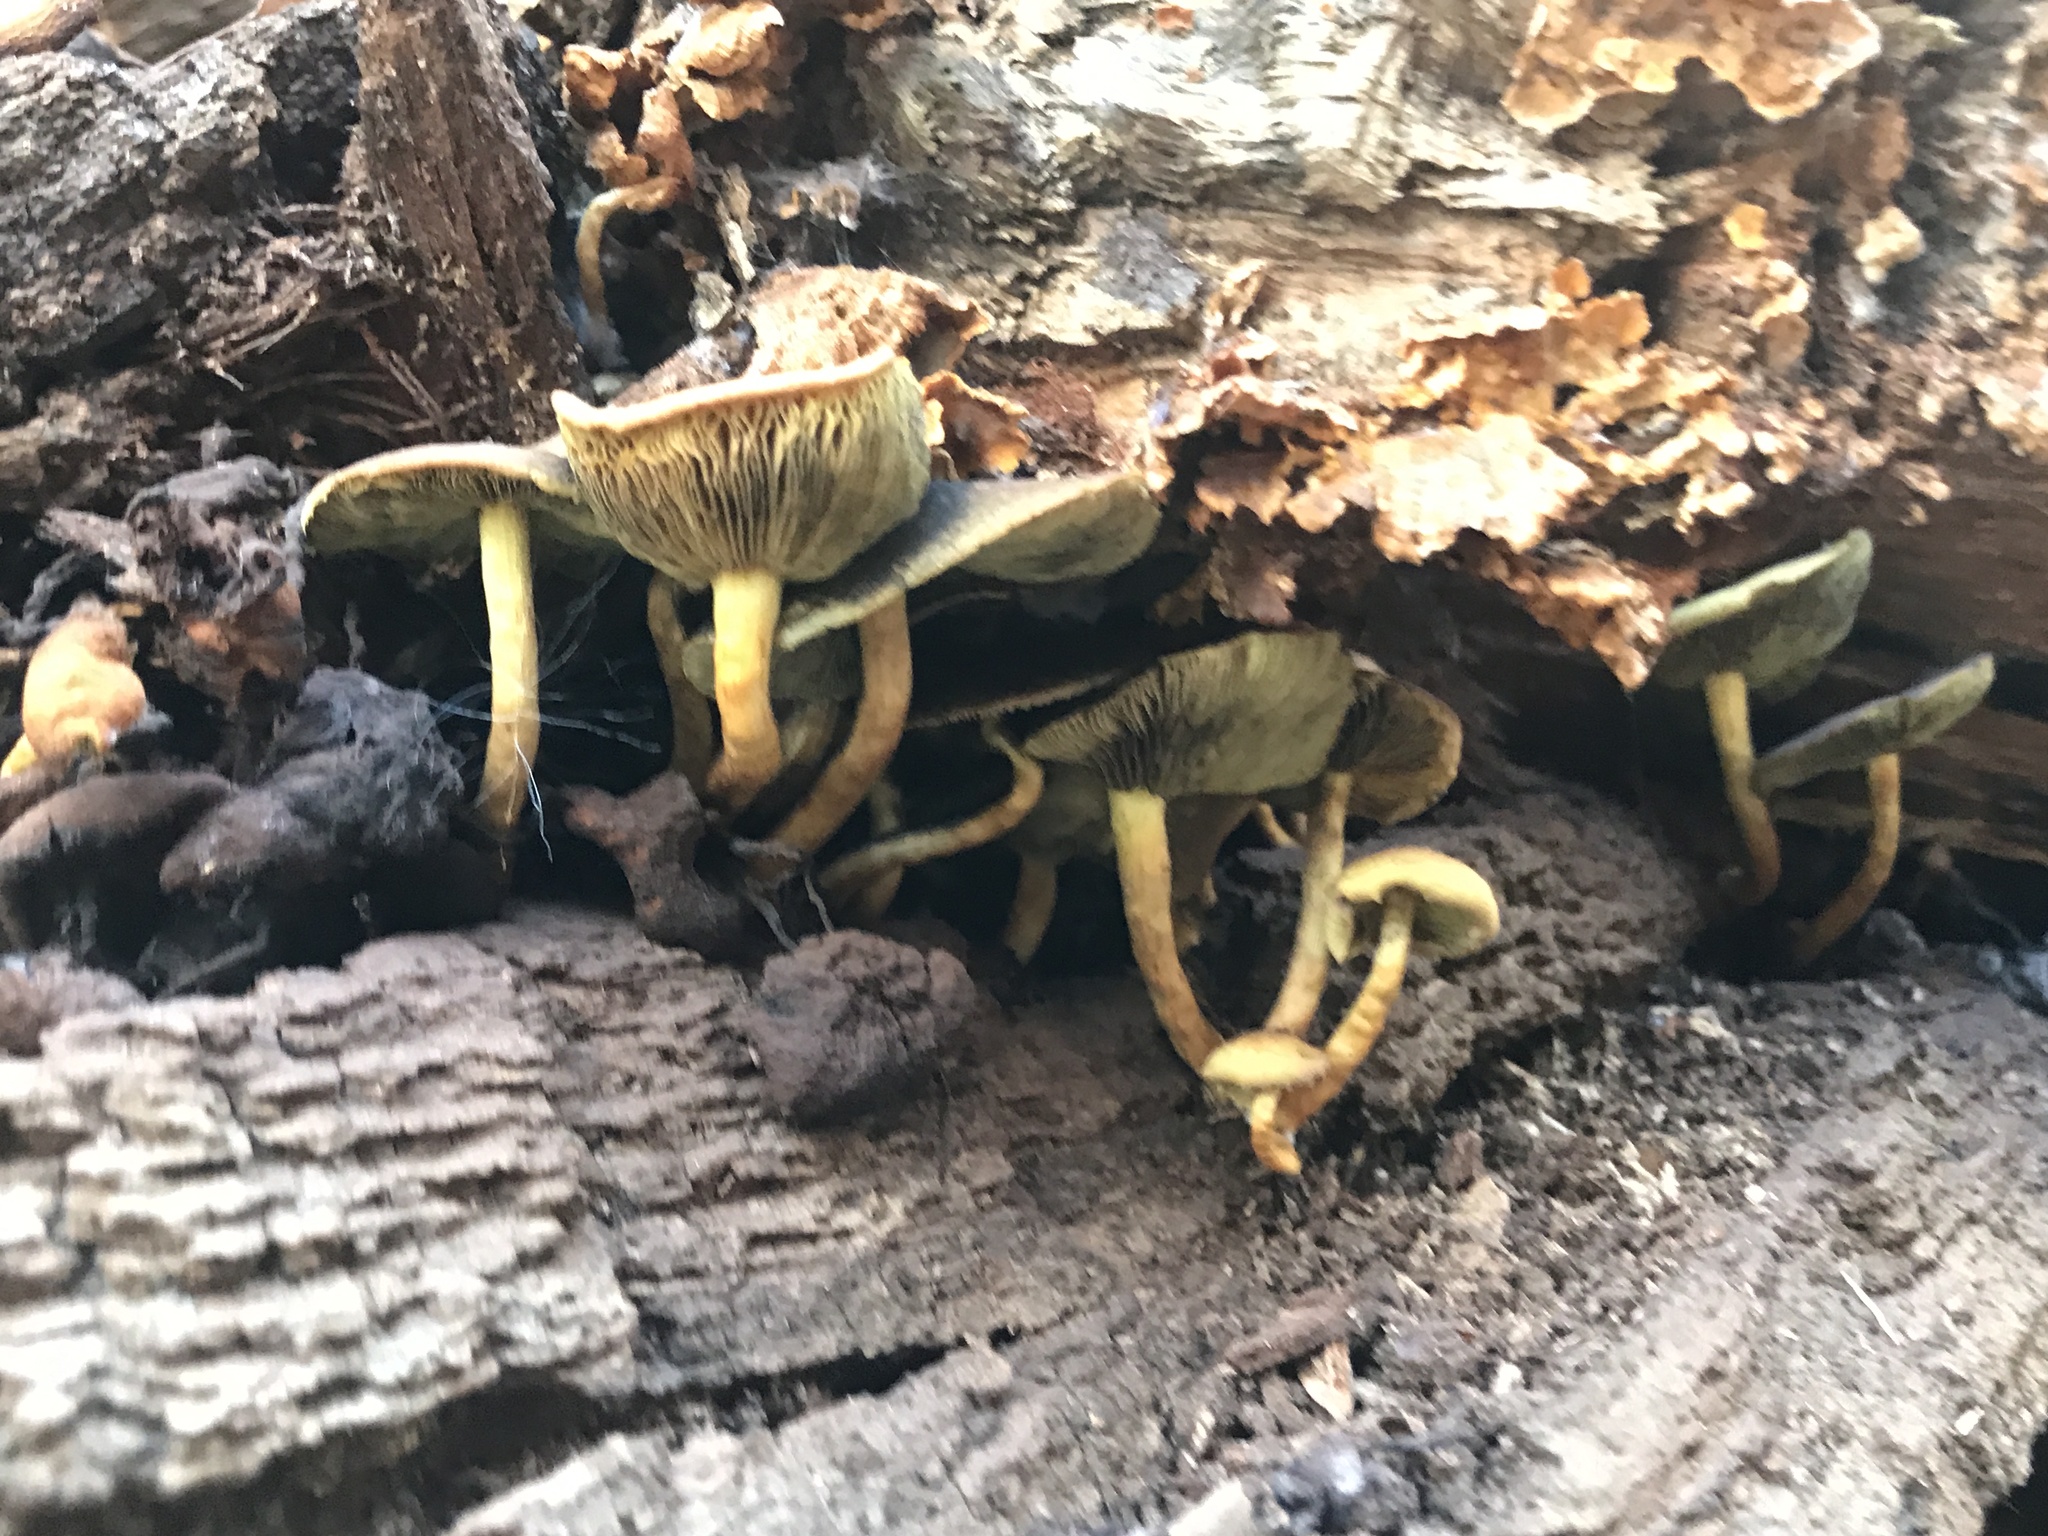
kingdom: Fungi
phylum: Basidiomycota
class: Agaricomycetes
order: Agaricales
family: Strophariaceae
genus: Hypholoma
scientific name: Hypholoma fasciculare
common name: Sulphur tuft
